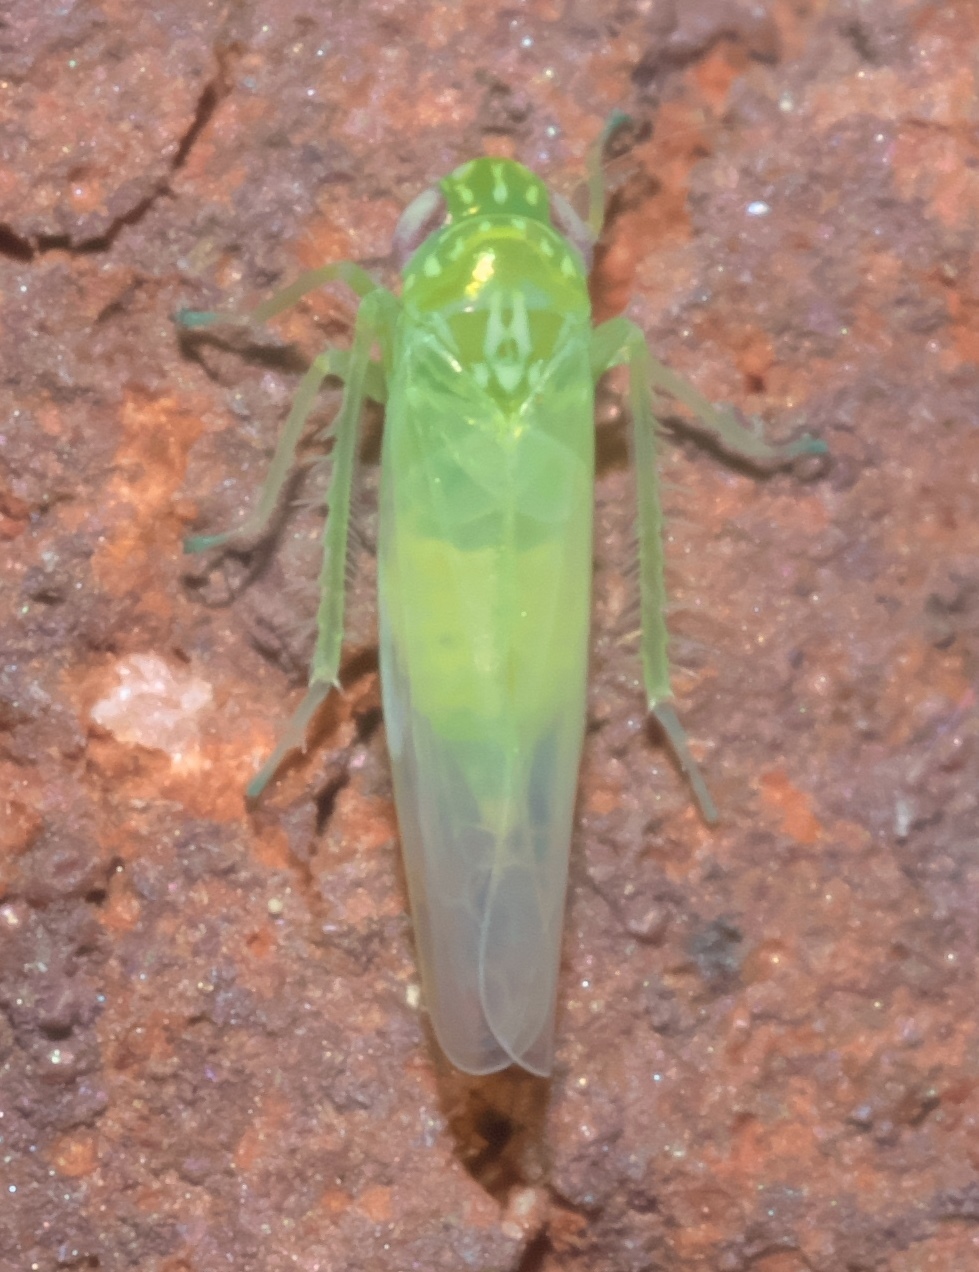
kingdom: Animalia
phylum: Arthropoda
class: Insecta
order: Hemiptera
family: Cicadellidae
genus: Empoasca
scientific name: Empoasca fabae
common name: Potato leafhopper
